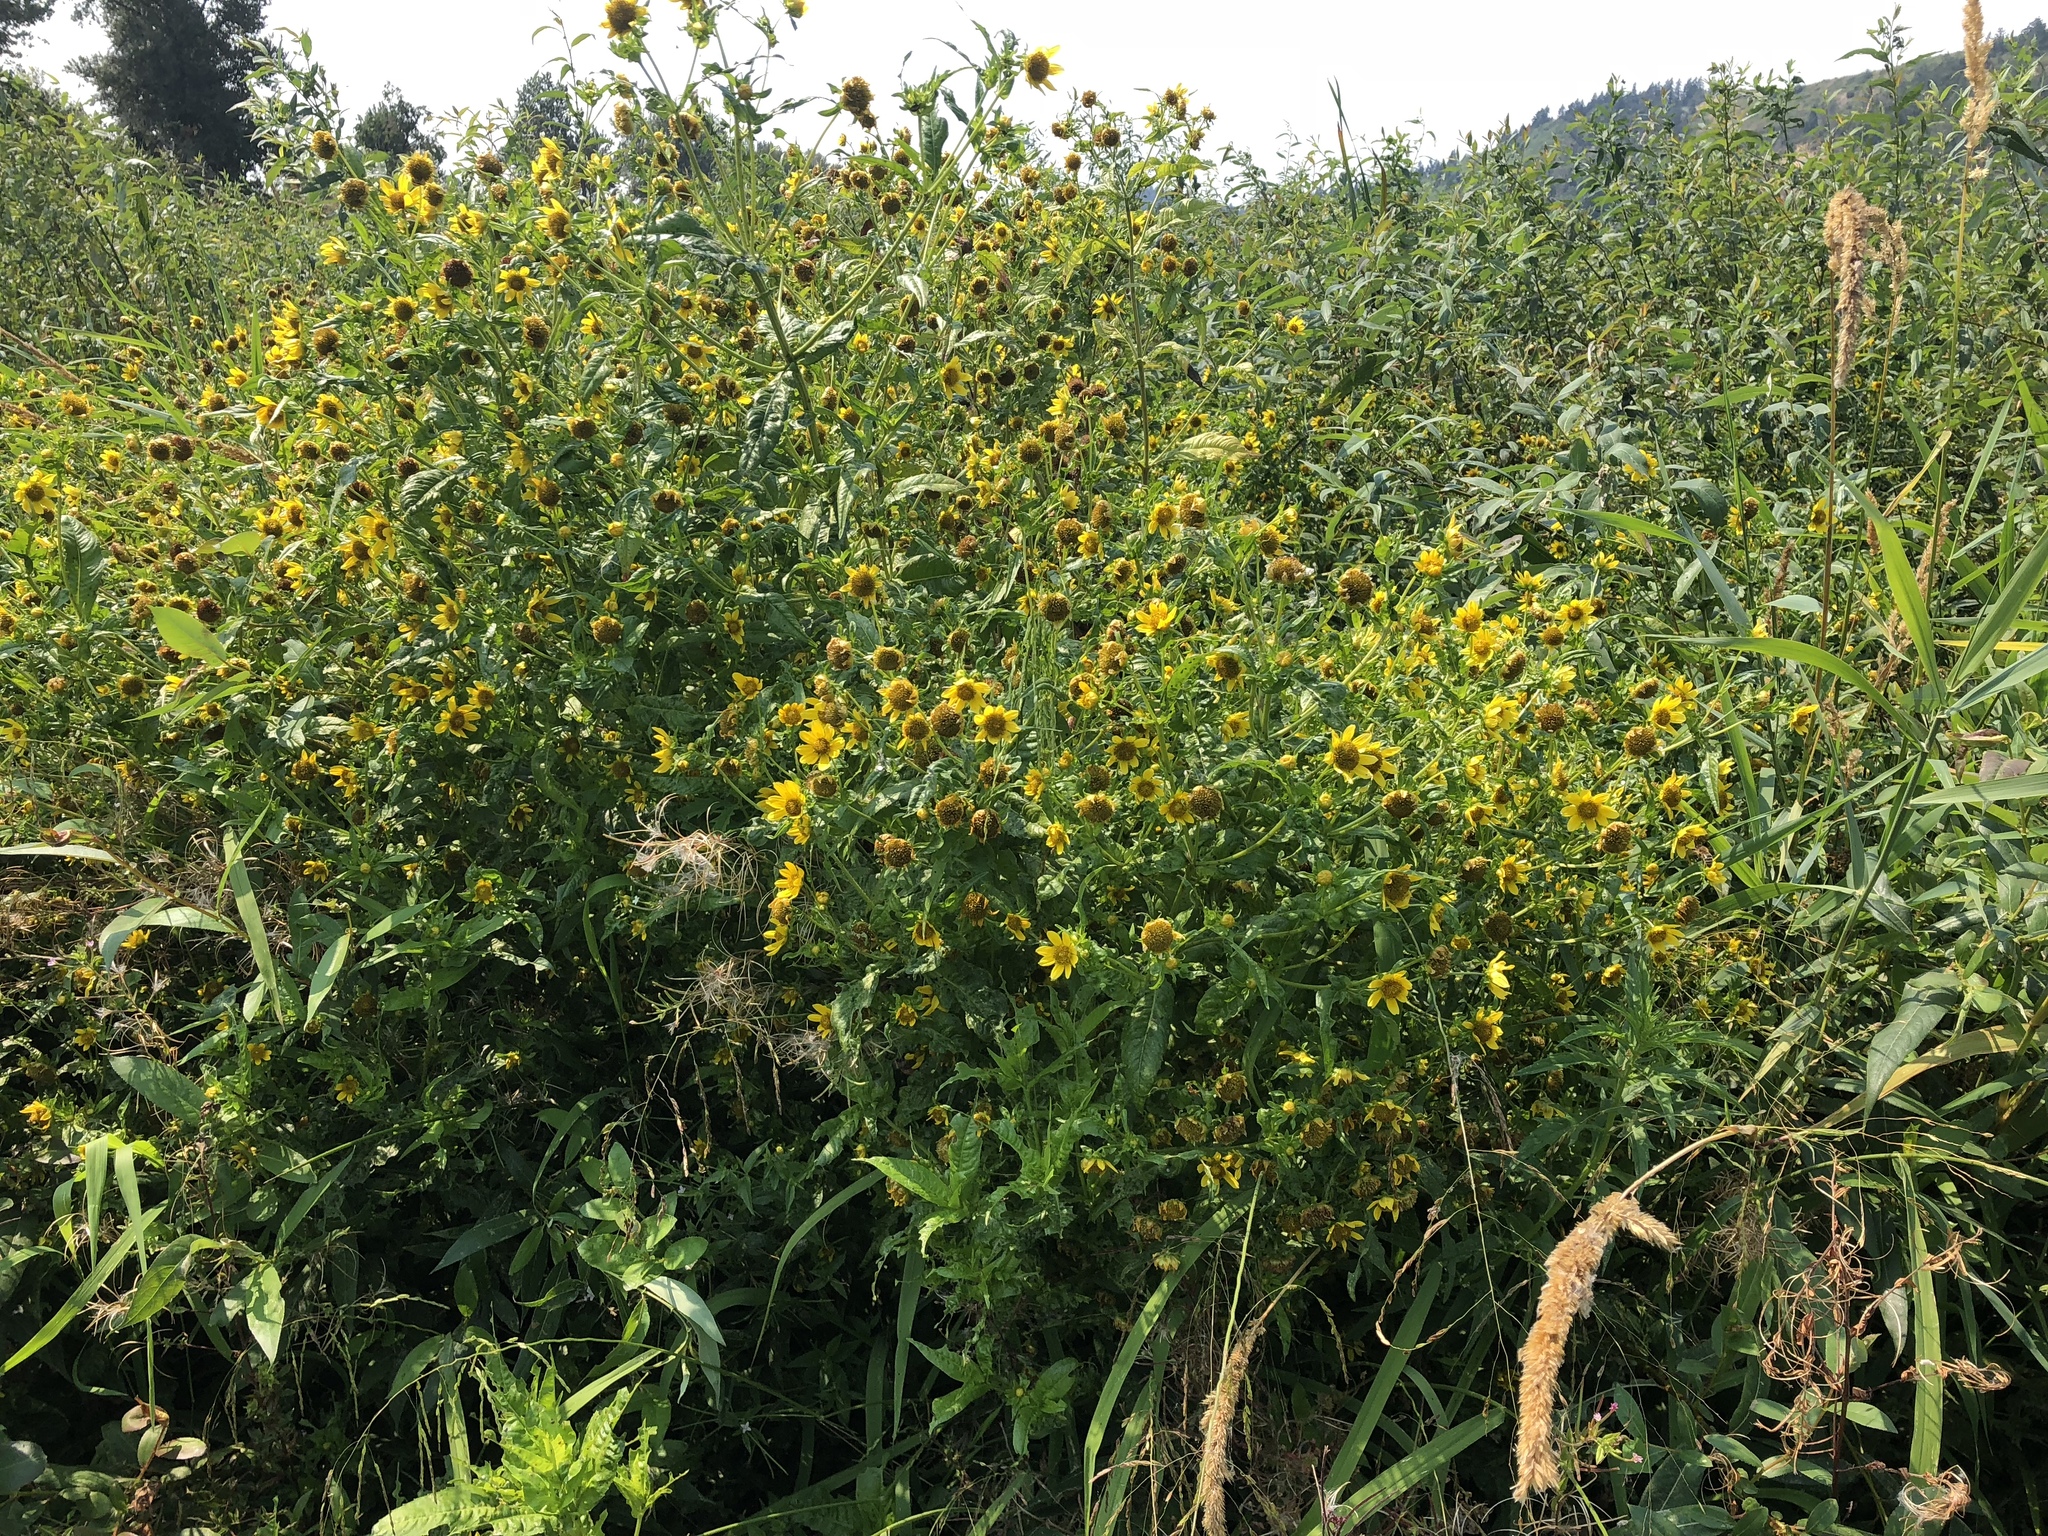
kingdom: Plantae
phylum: Tracheophyta
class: Magnoliopsida
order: Asterales
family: Asteraceae
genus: Bidens
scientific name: Bidens cernua
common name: Nodding bur-marigold
